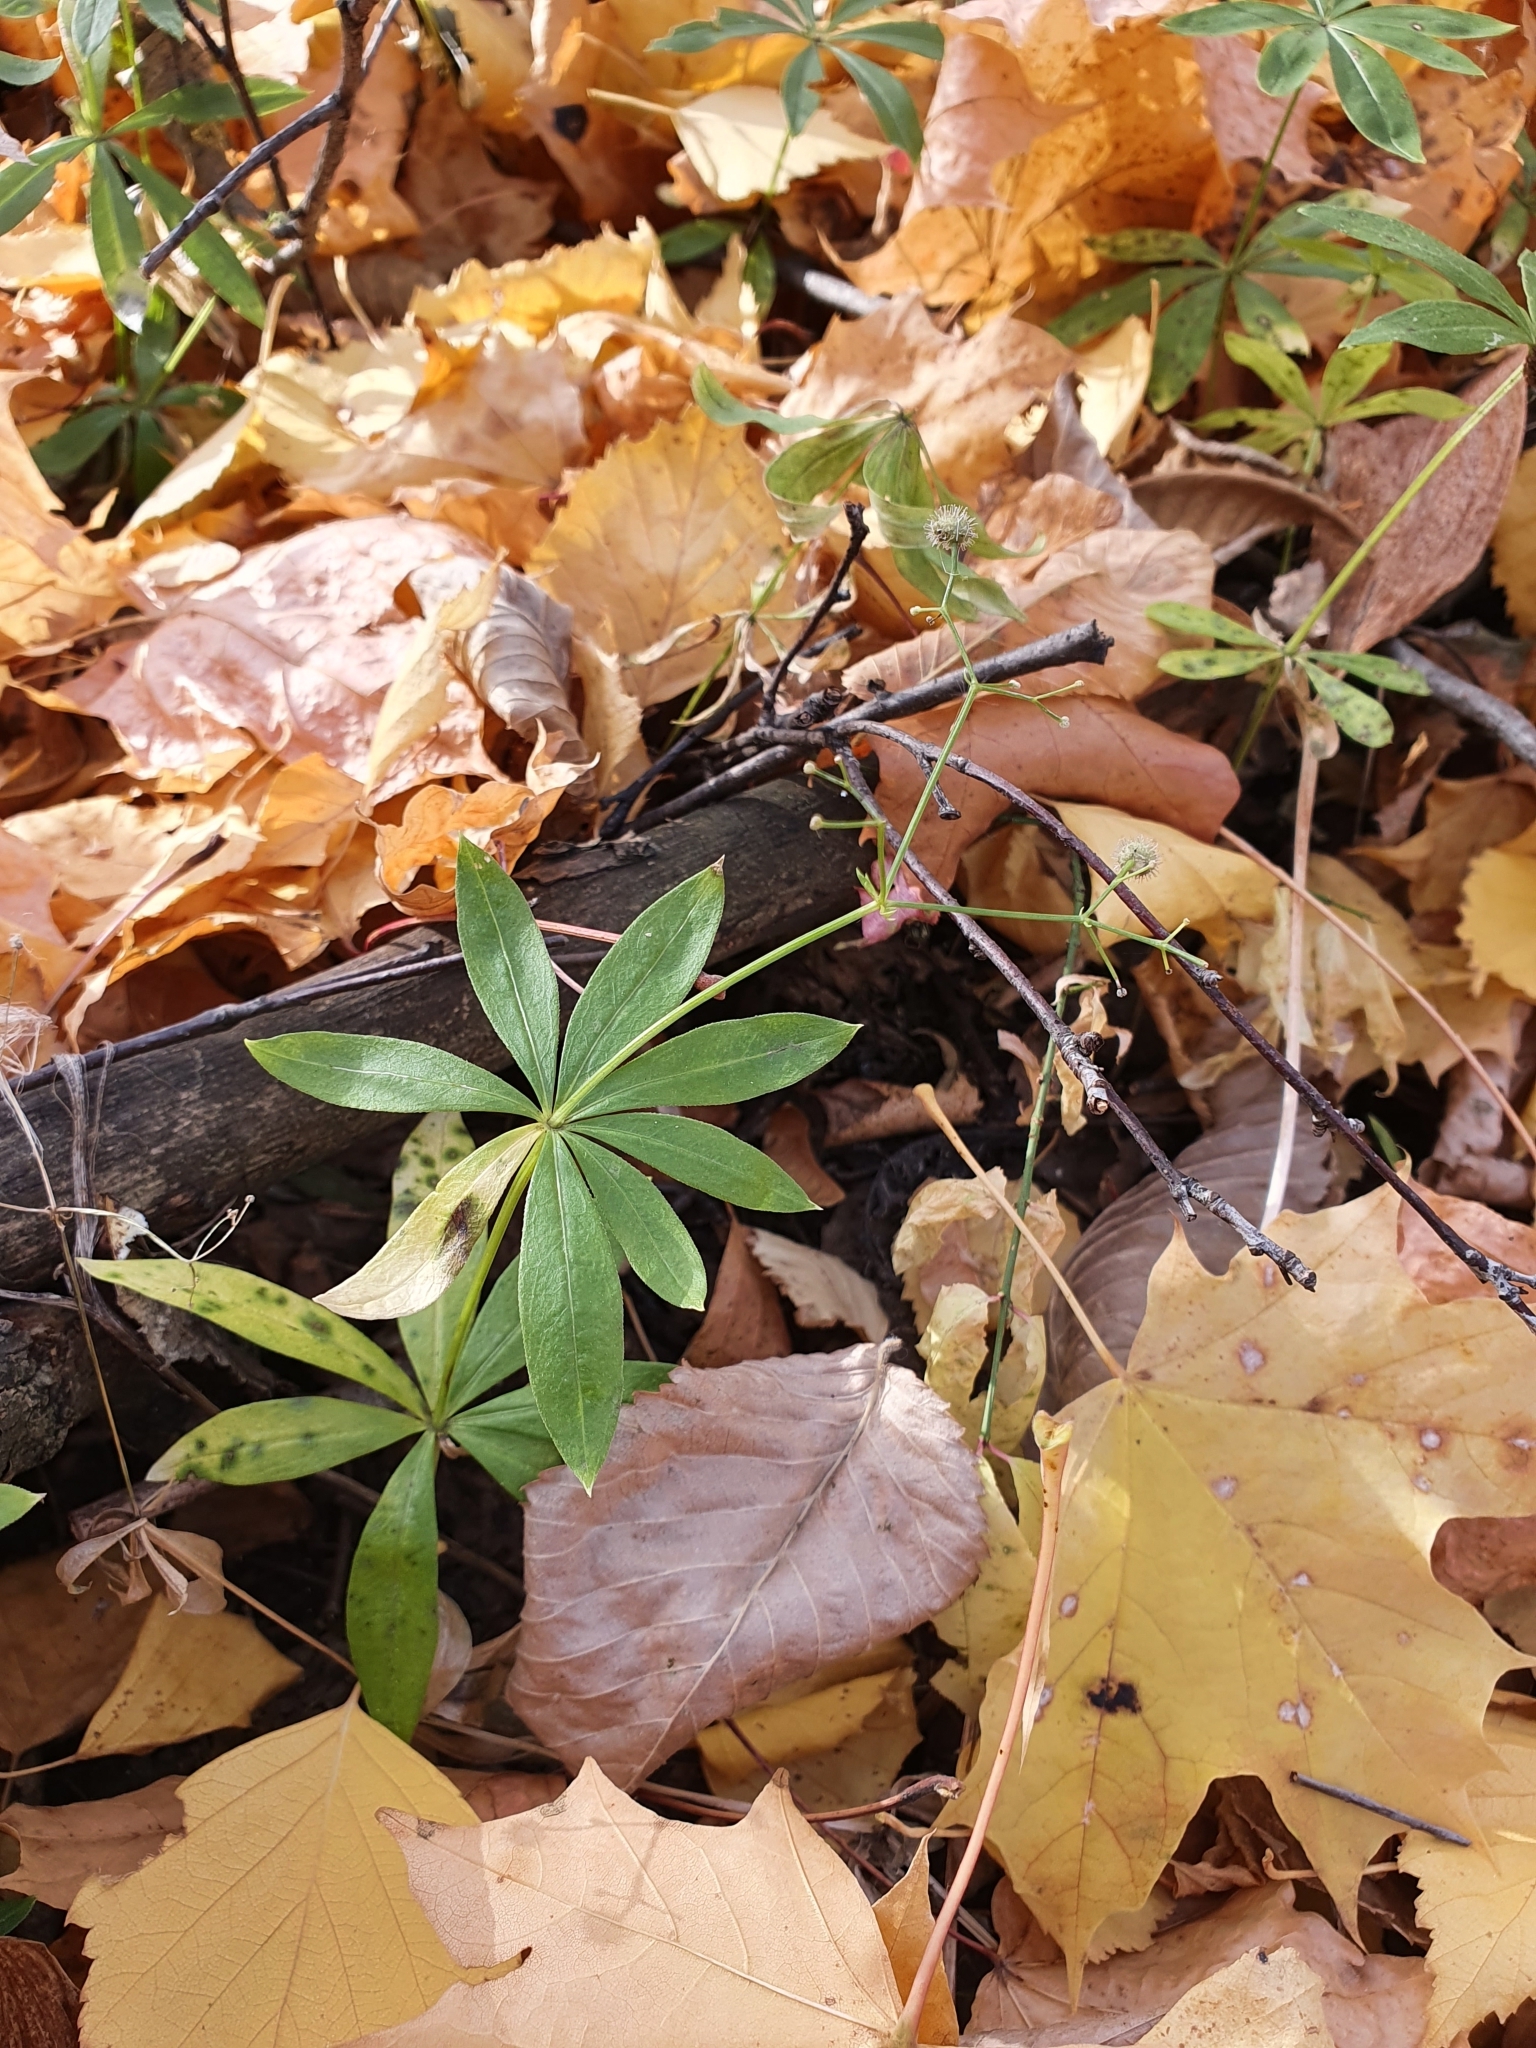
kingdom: Plantae
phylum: Tracheophyta
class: Magnoliopsida
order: Gentianales
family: Rubiaceae
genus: Galium
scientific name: Galium odoratum
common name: Sweet woodruff
